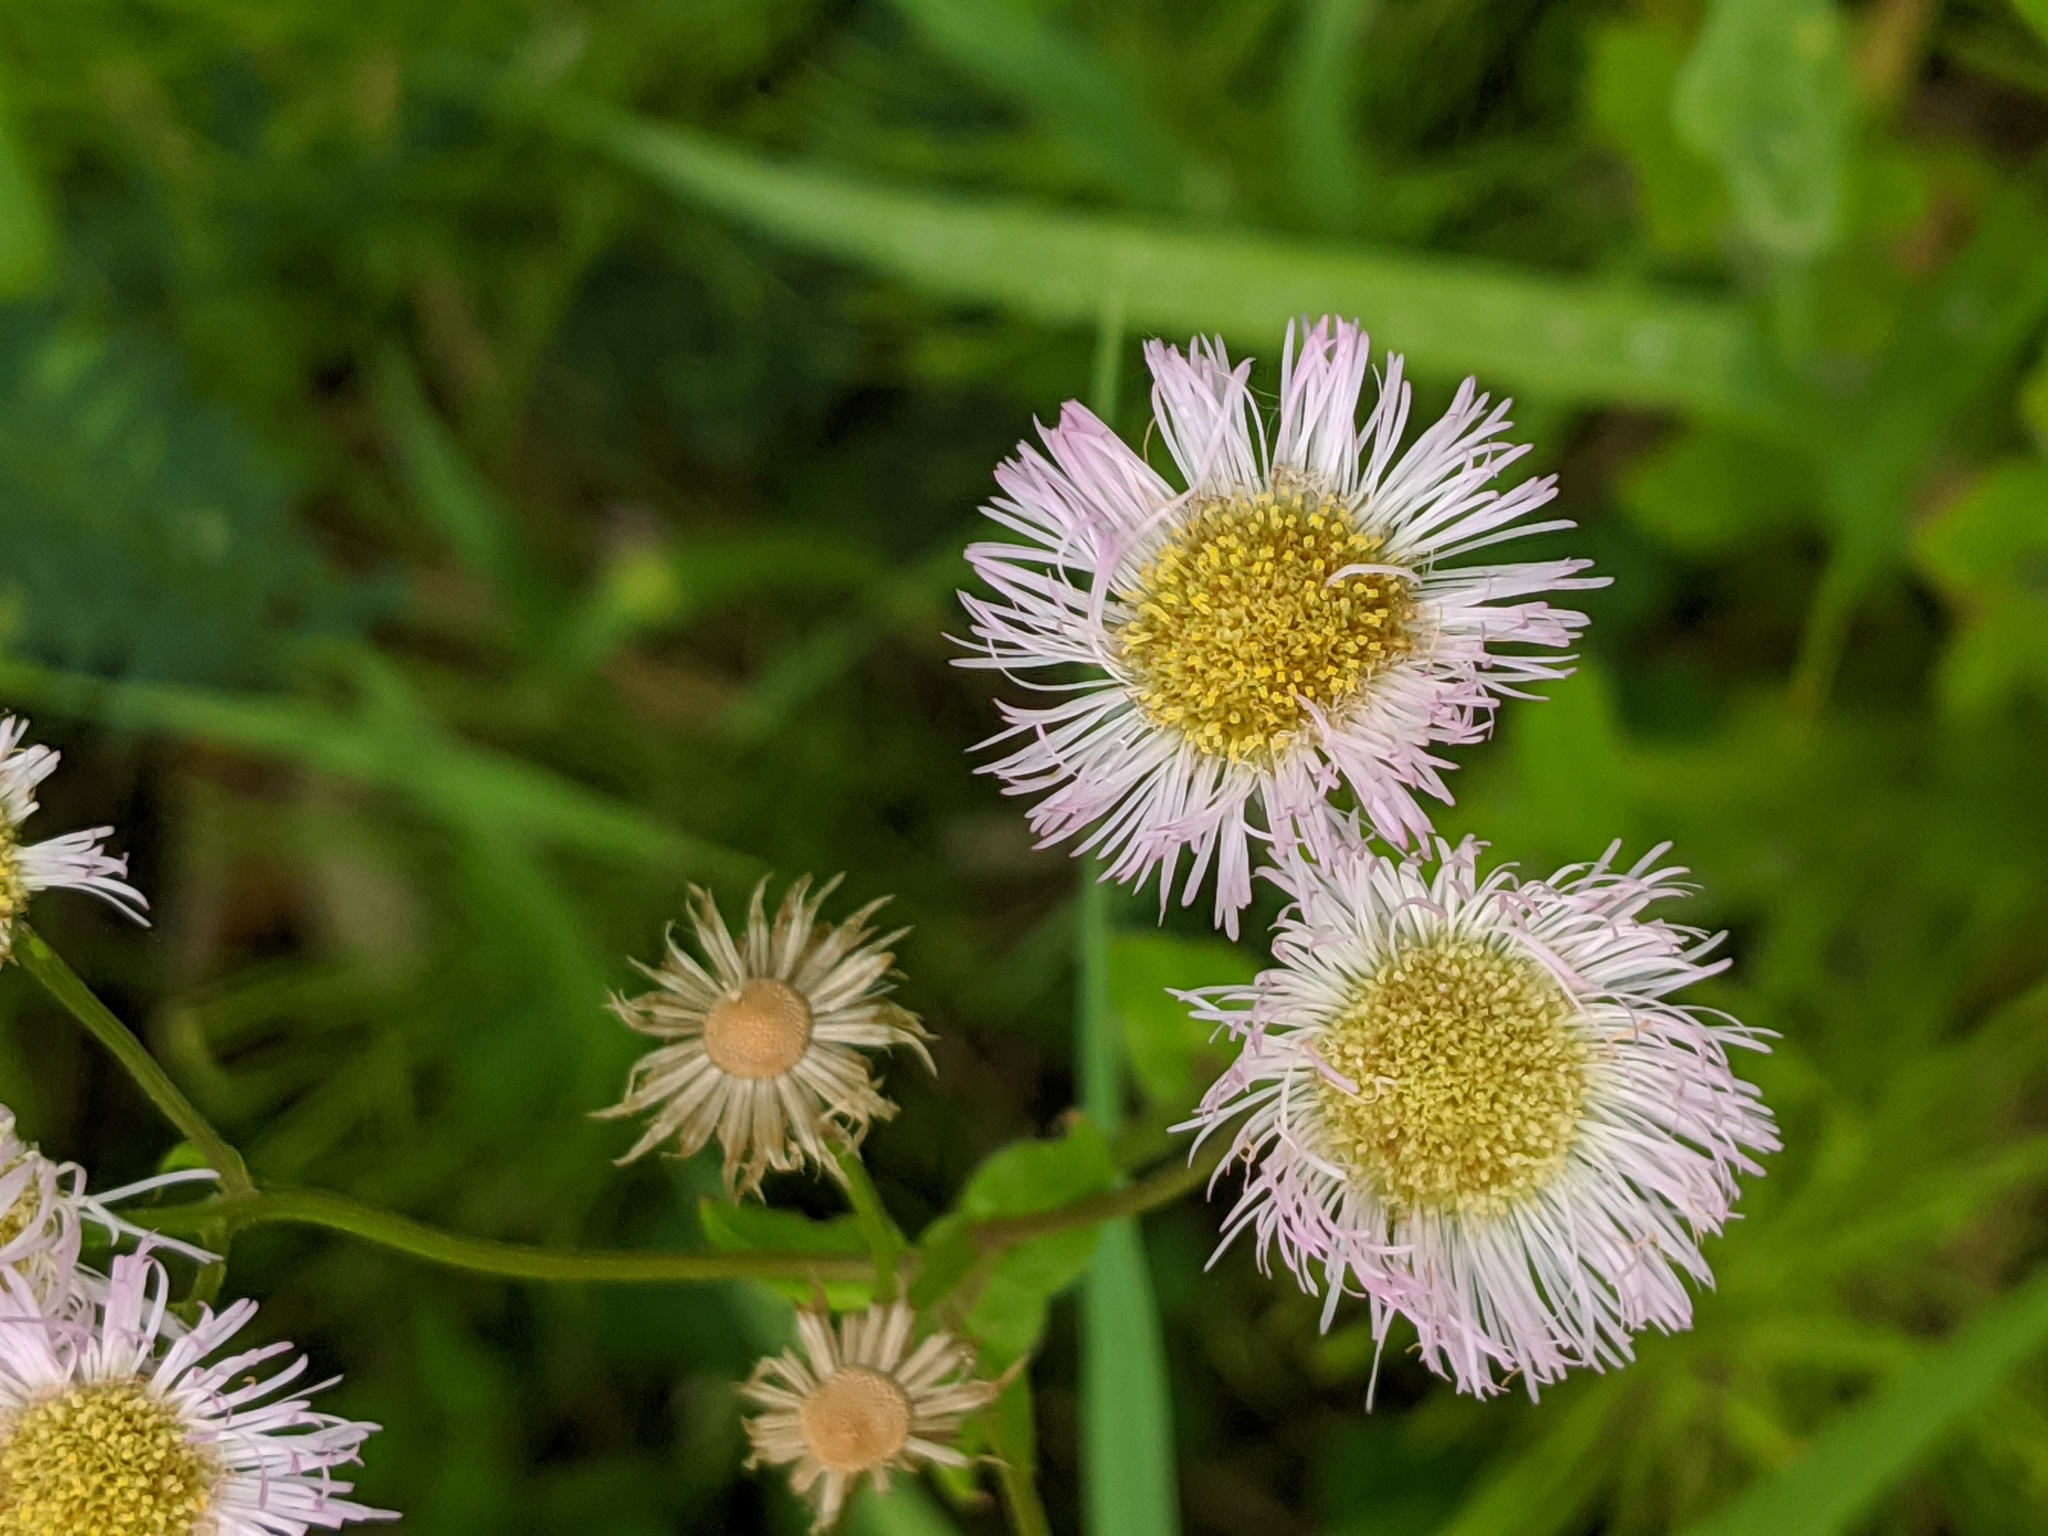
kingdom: Plantae
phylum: Tracheophyta
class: Magnoliopsida
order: Asterales
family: Asteraceae
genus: Erigeron
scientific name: Erigeron philadelphicus
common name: Robin's-plantain
